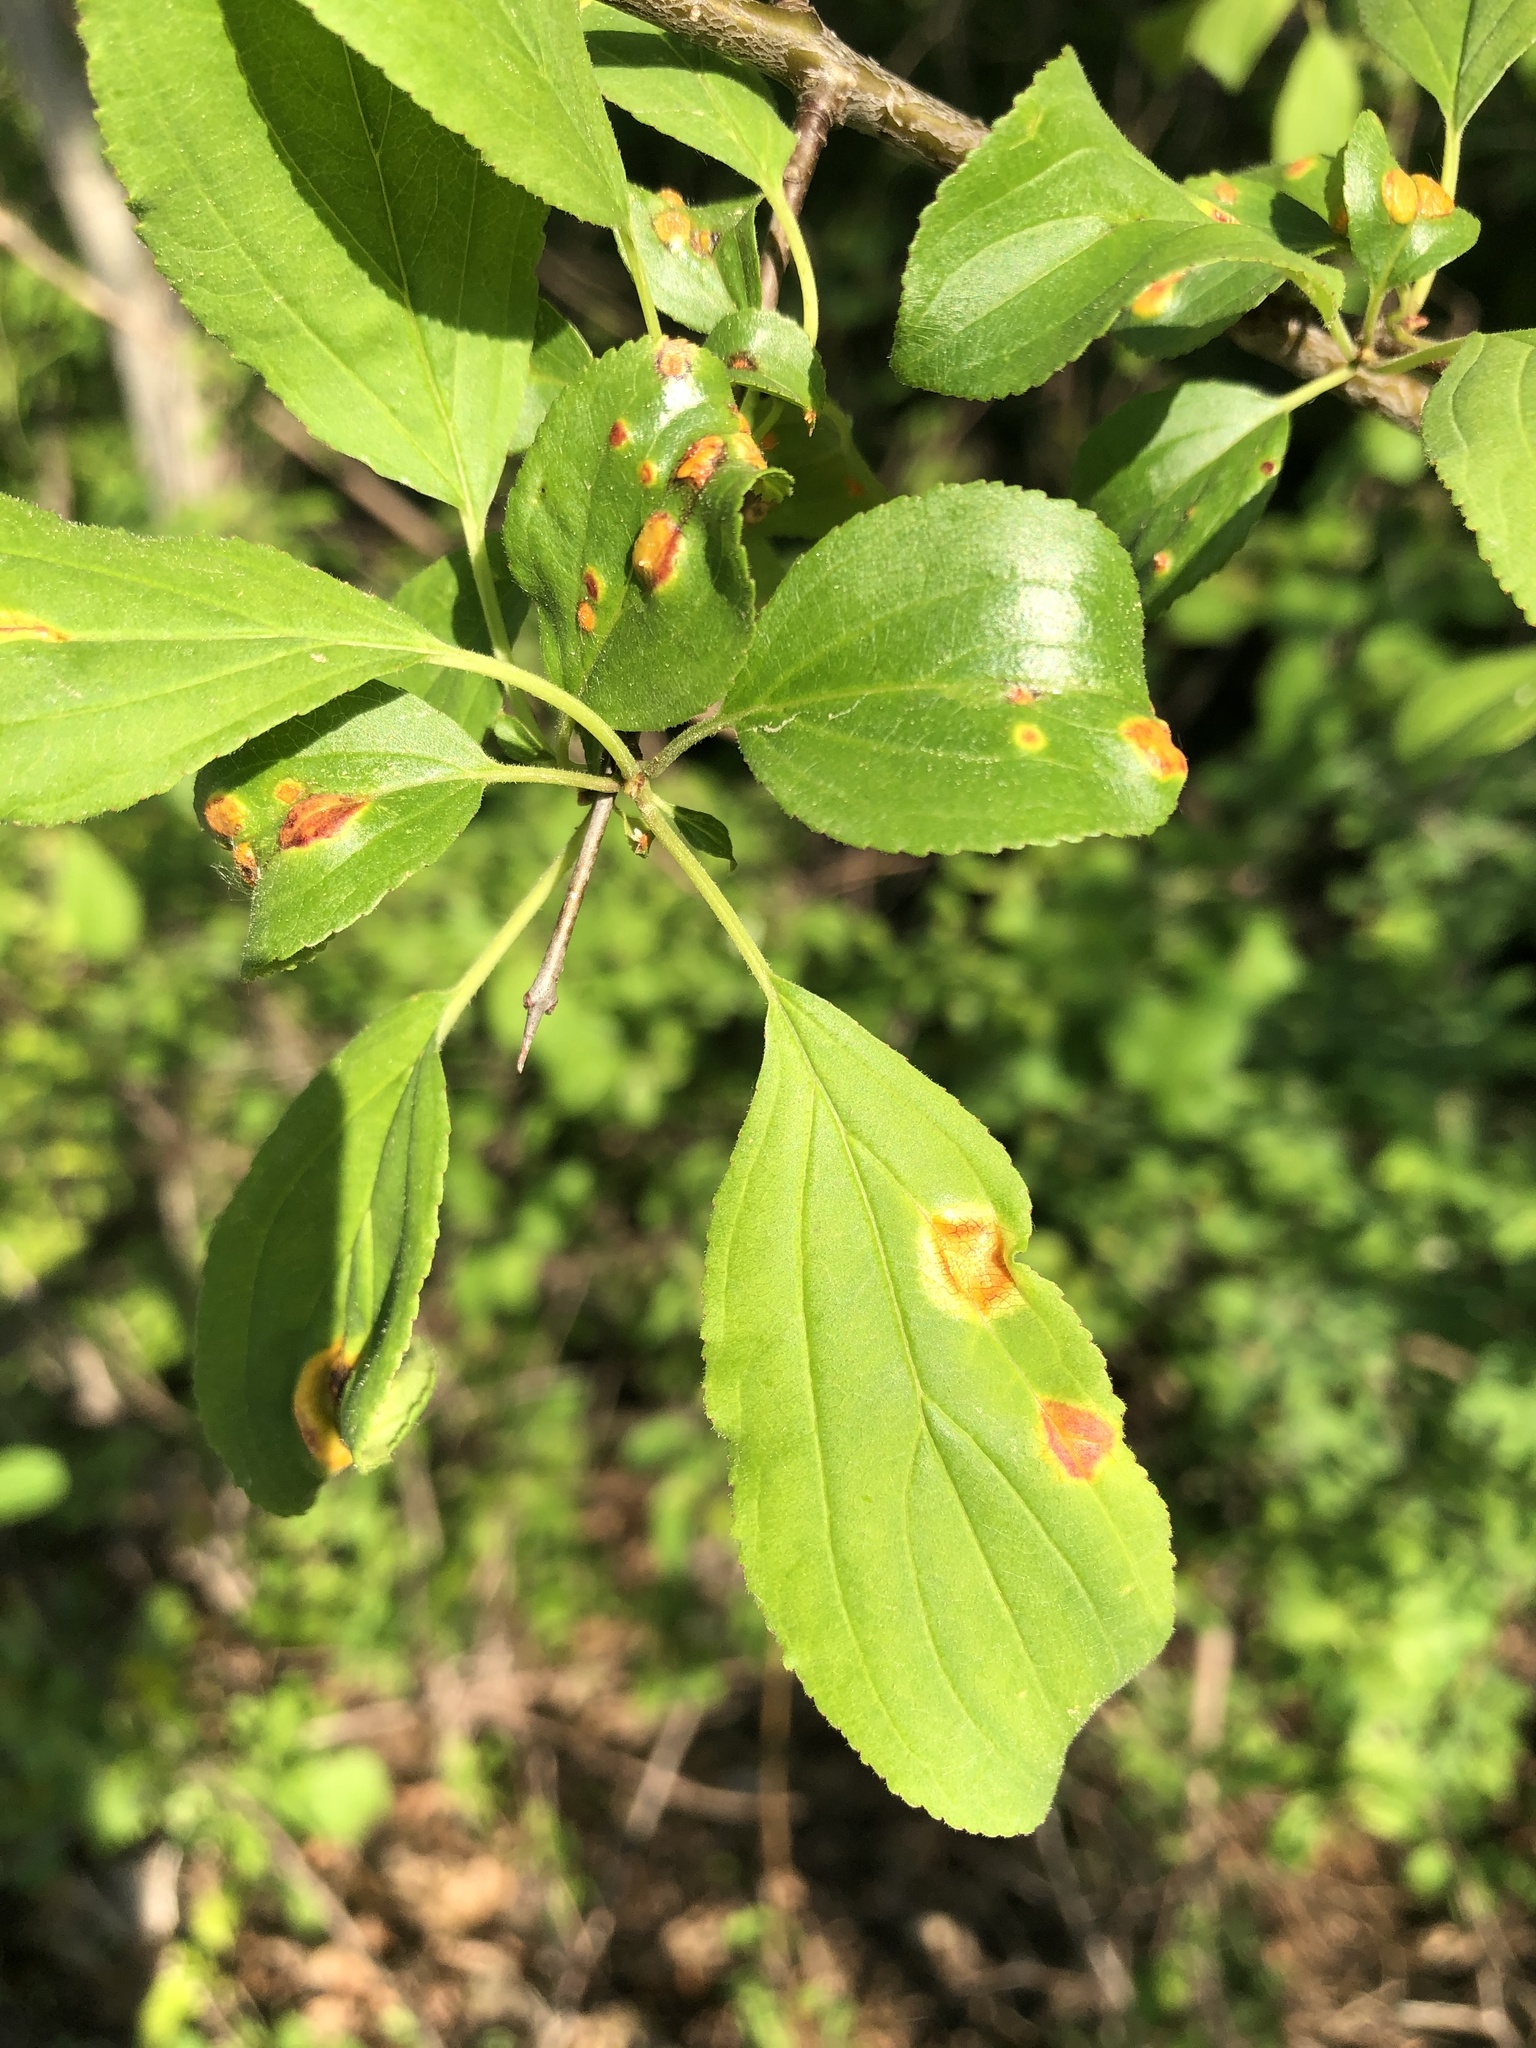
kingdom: Fungi
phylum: Basidiomycota
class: Pucciniomycetes
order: Pucciniales
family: Pucciniaceae
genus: Puccinia
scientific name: Puccinia coronata
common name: Crown rust
